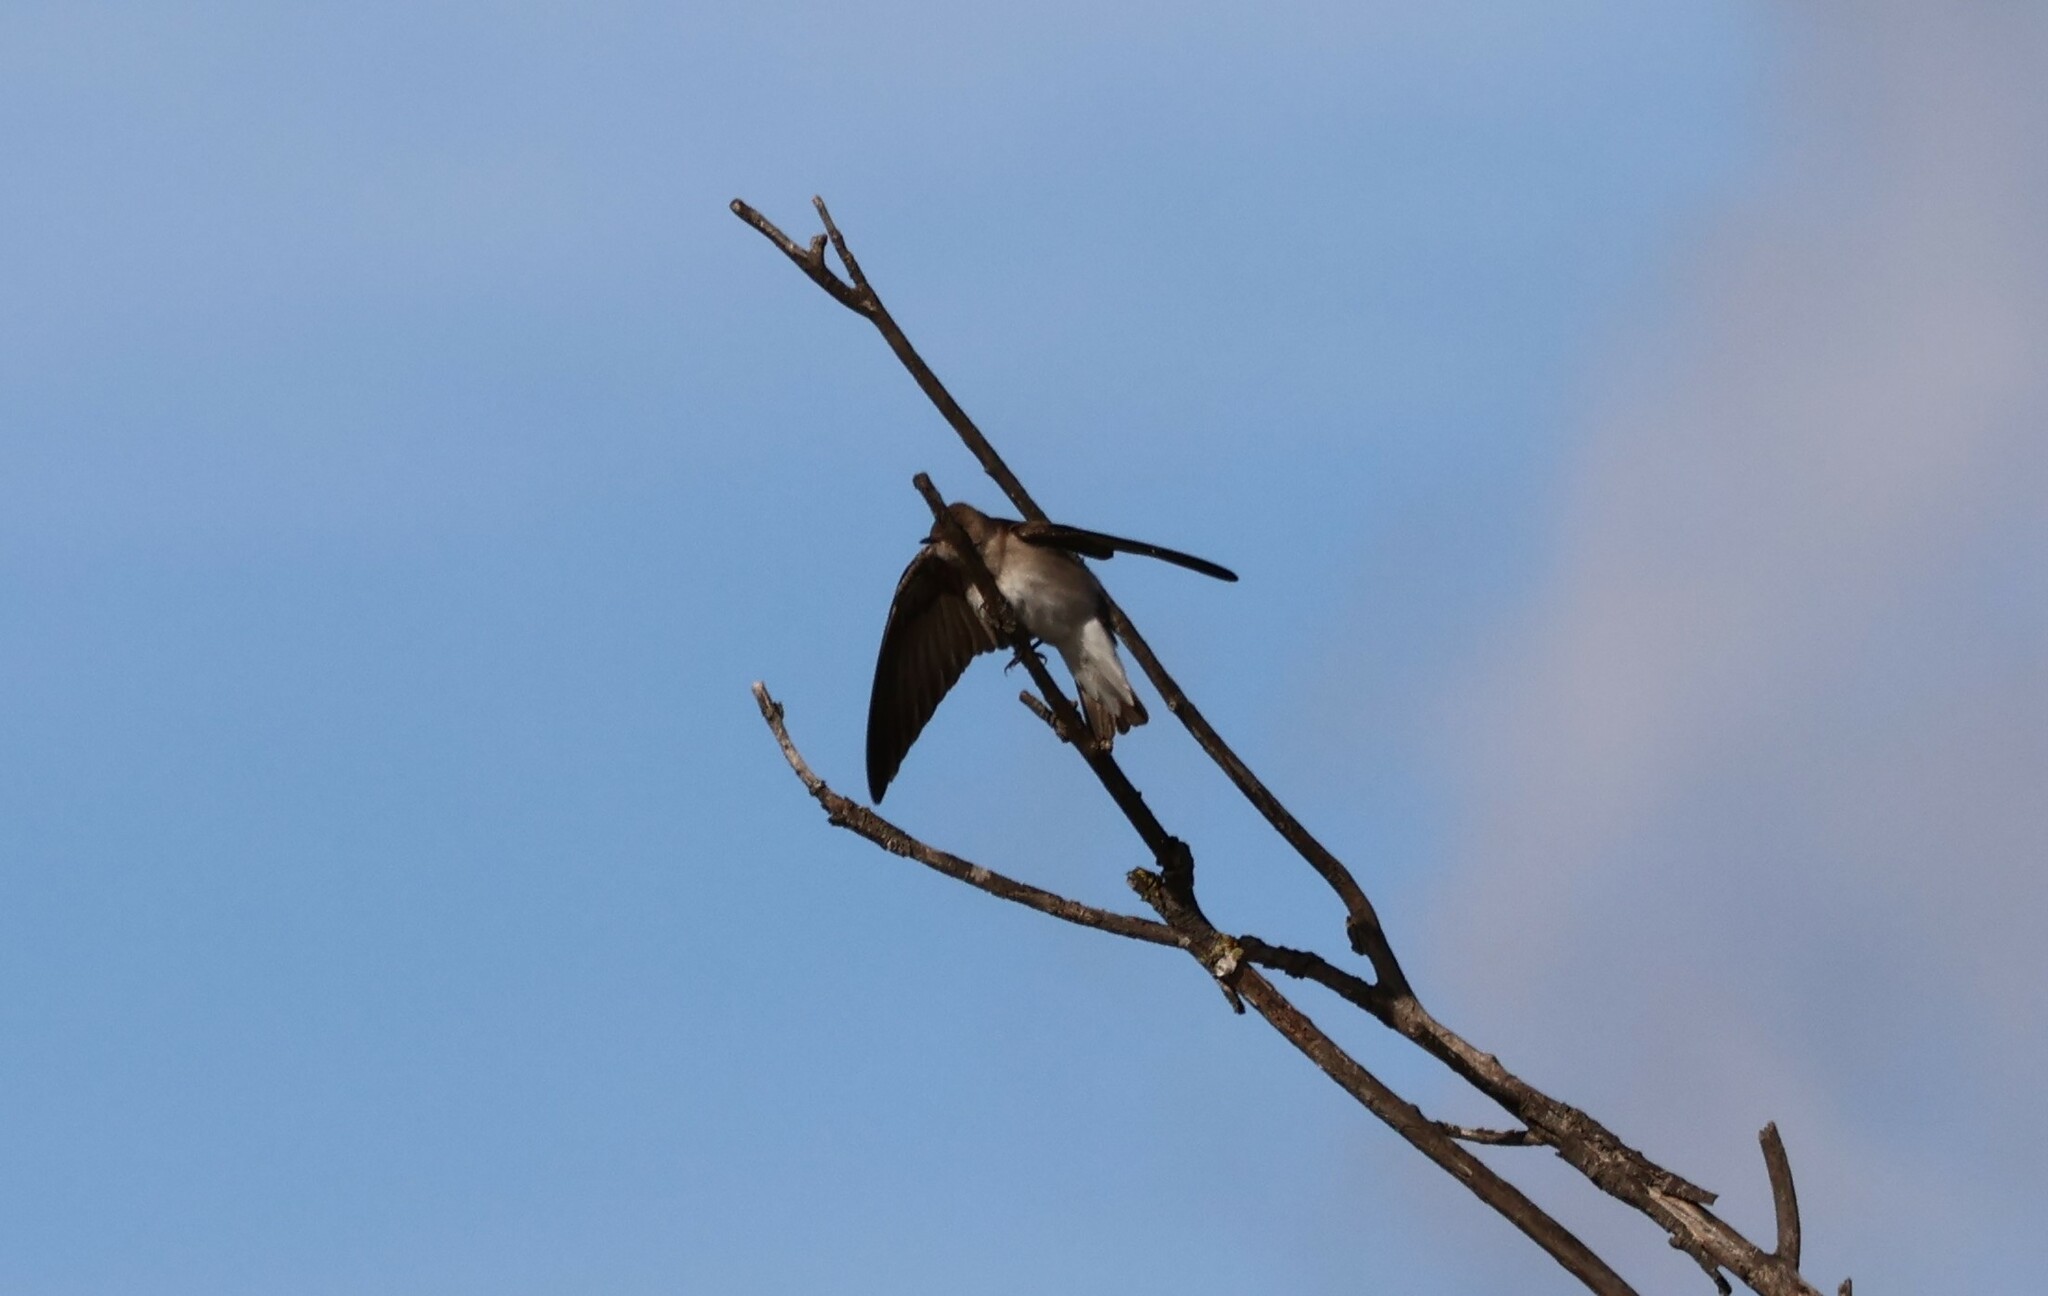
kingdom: Animalia
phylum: Chordata
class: Aves
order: Passeriformes
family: Hirundinidae
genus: Stelgidopteryx
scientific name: Stelgidopteryx serripennis
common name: Northern rough-winged swallow
